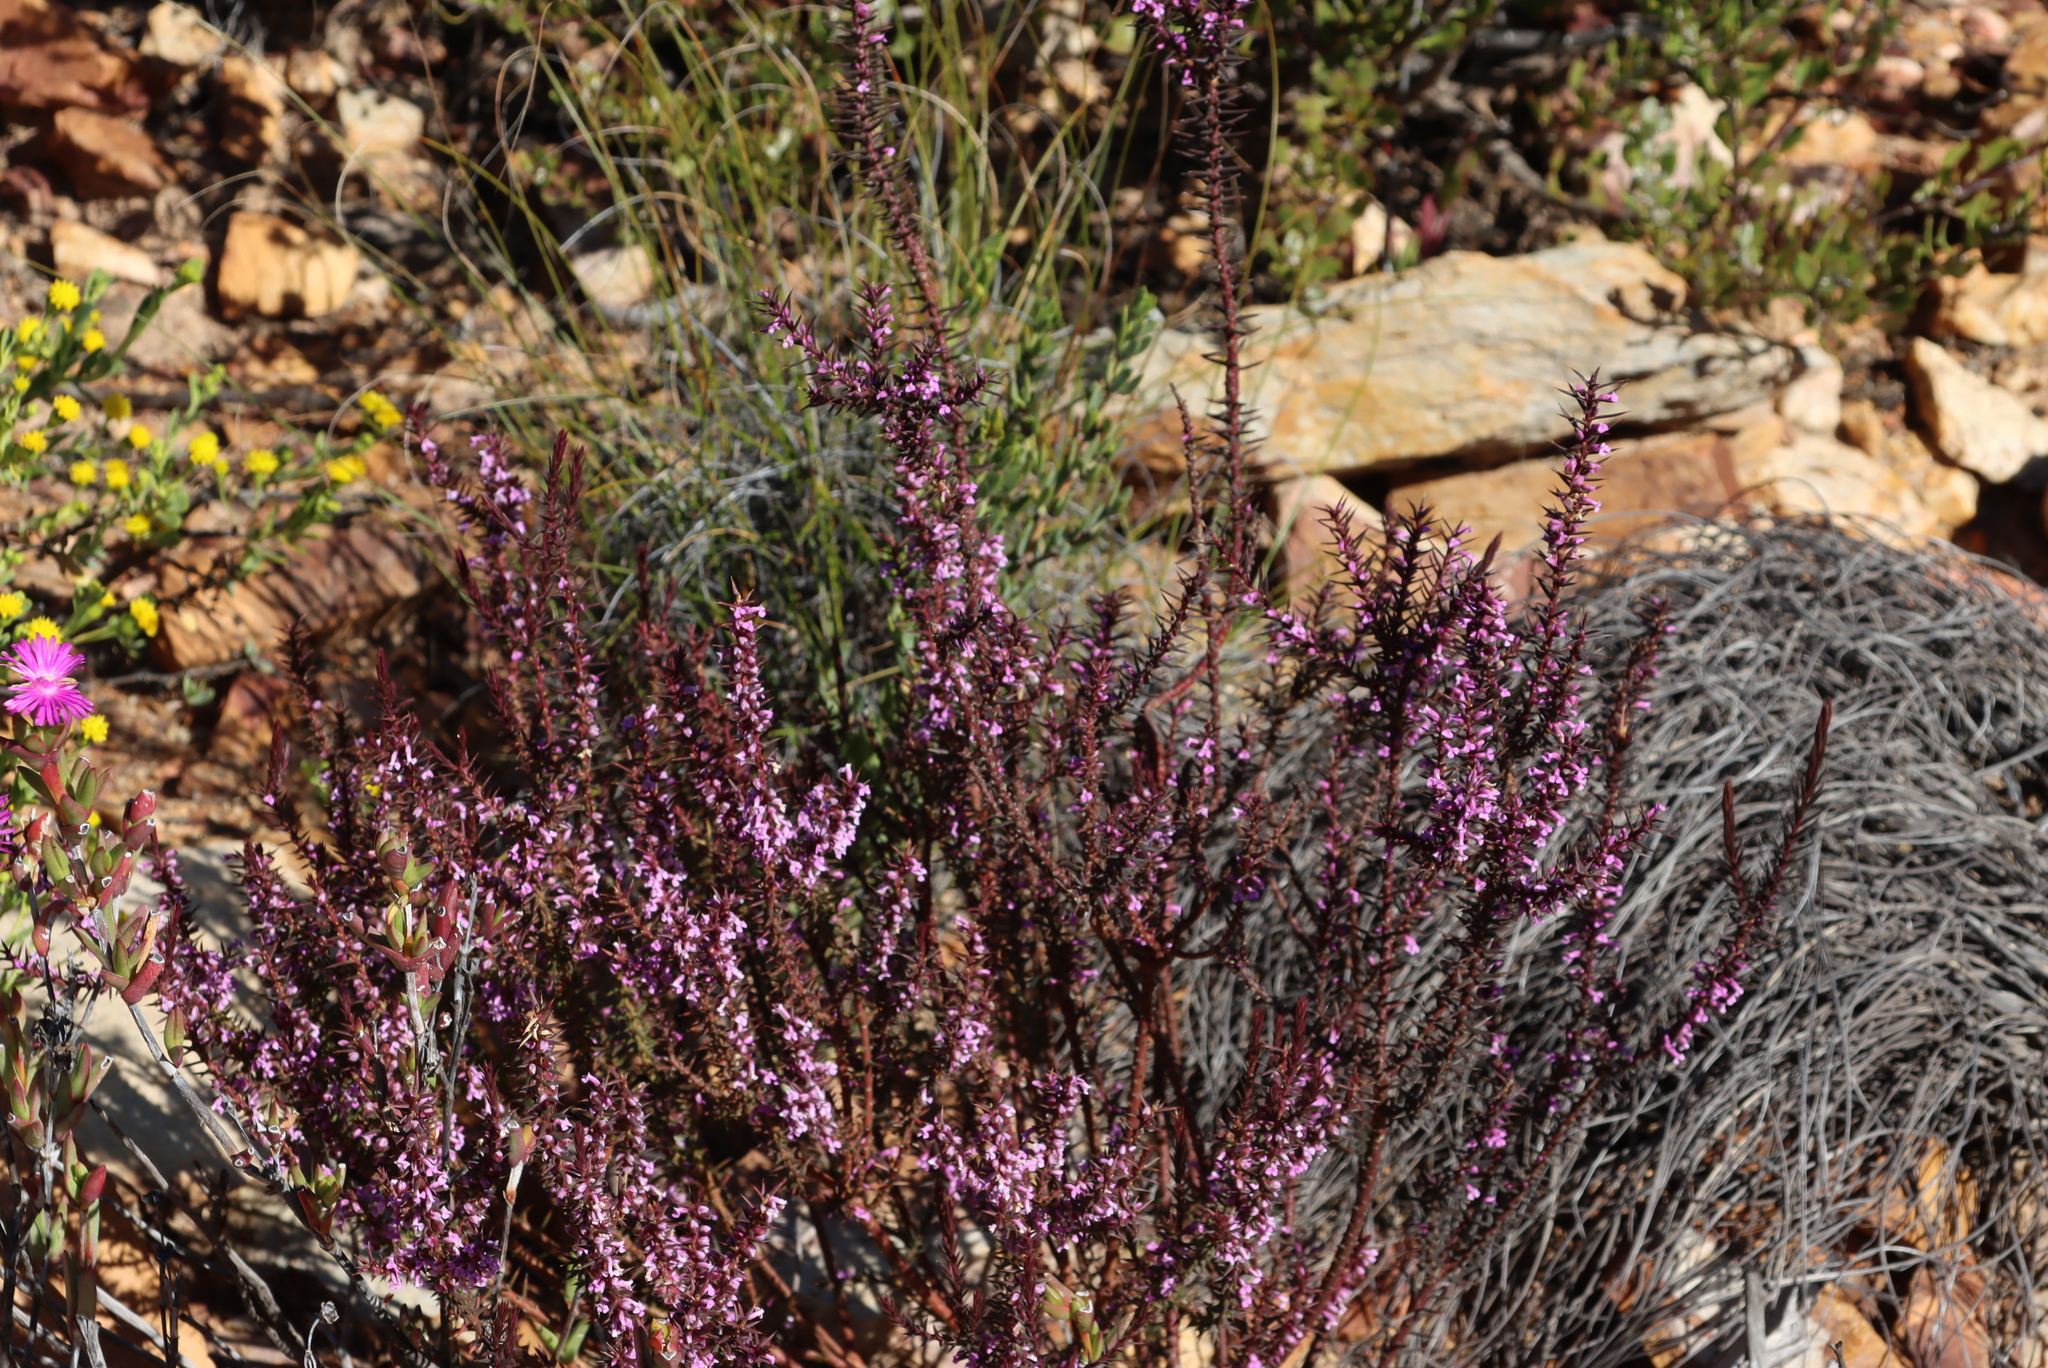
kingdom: Plantae
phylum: Tracheophyta
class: Magnoliopsida
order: Fabales
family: Polygalaceae
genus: Muraltia
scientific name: Muraltia juniperifolia
